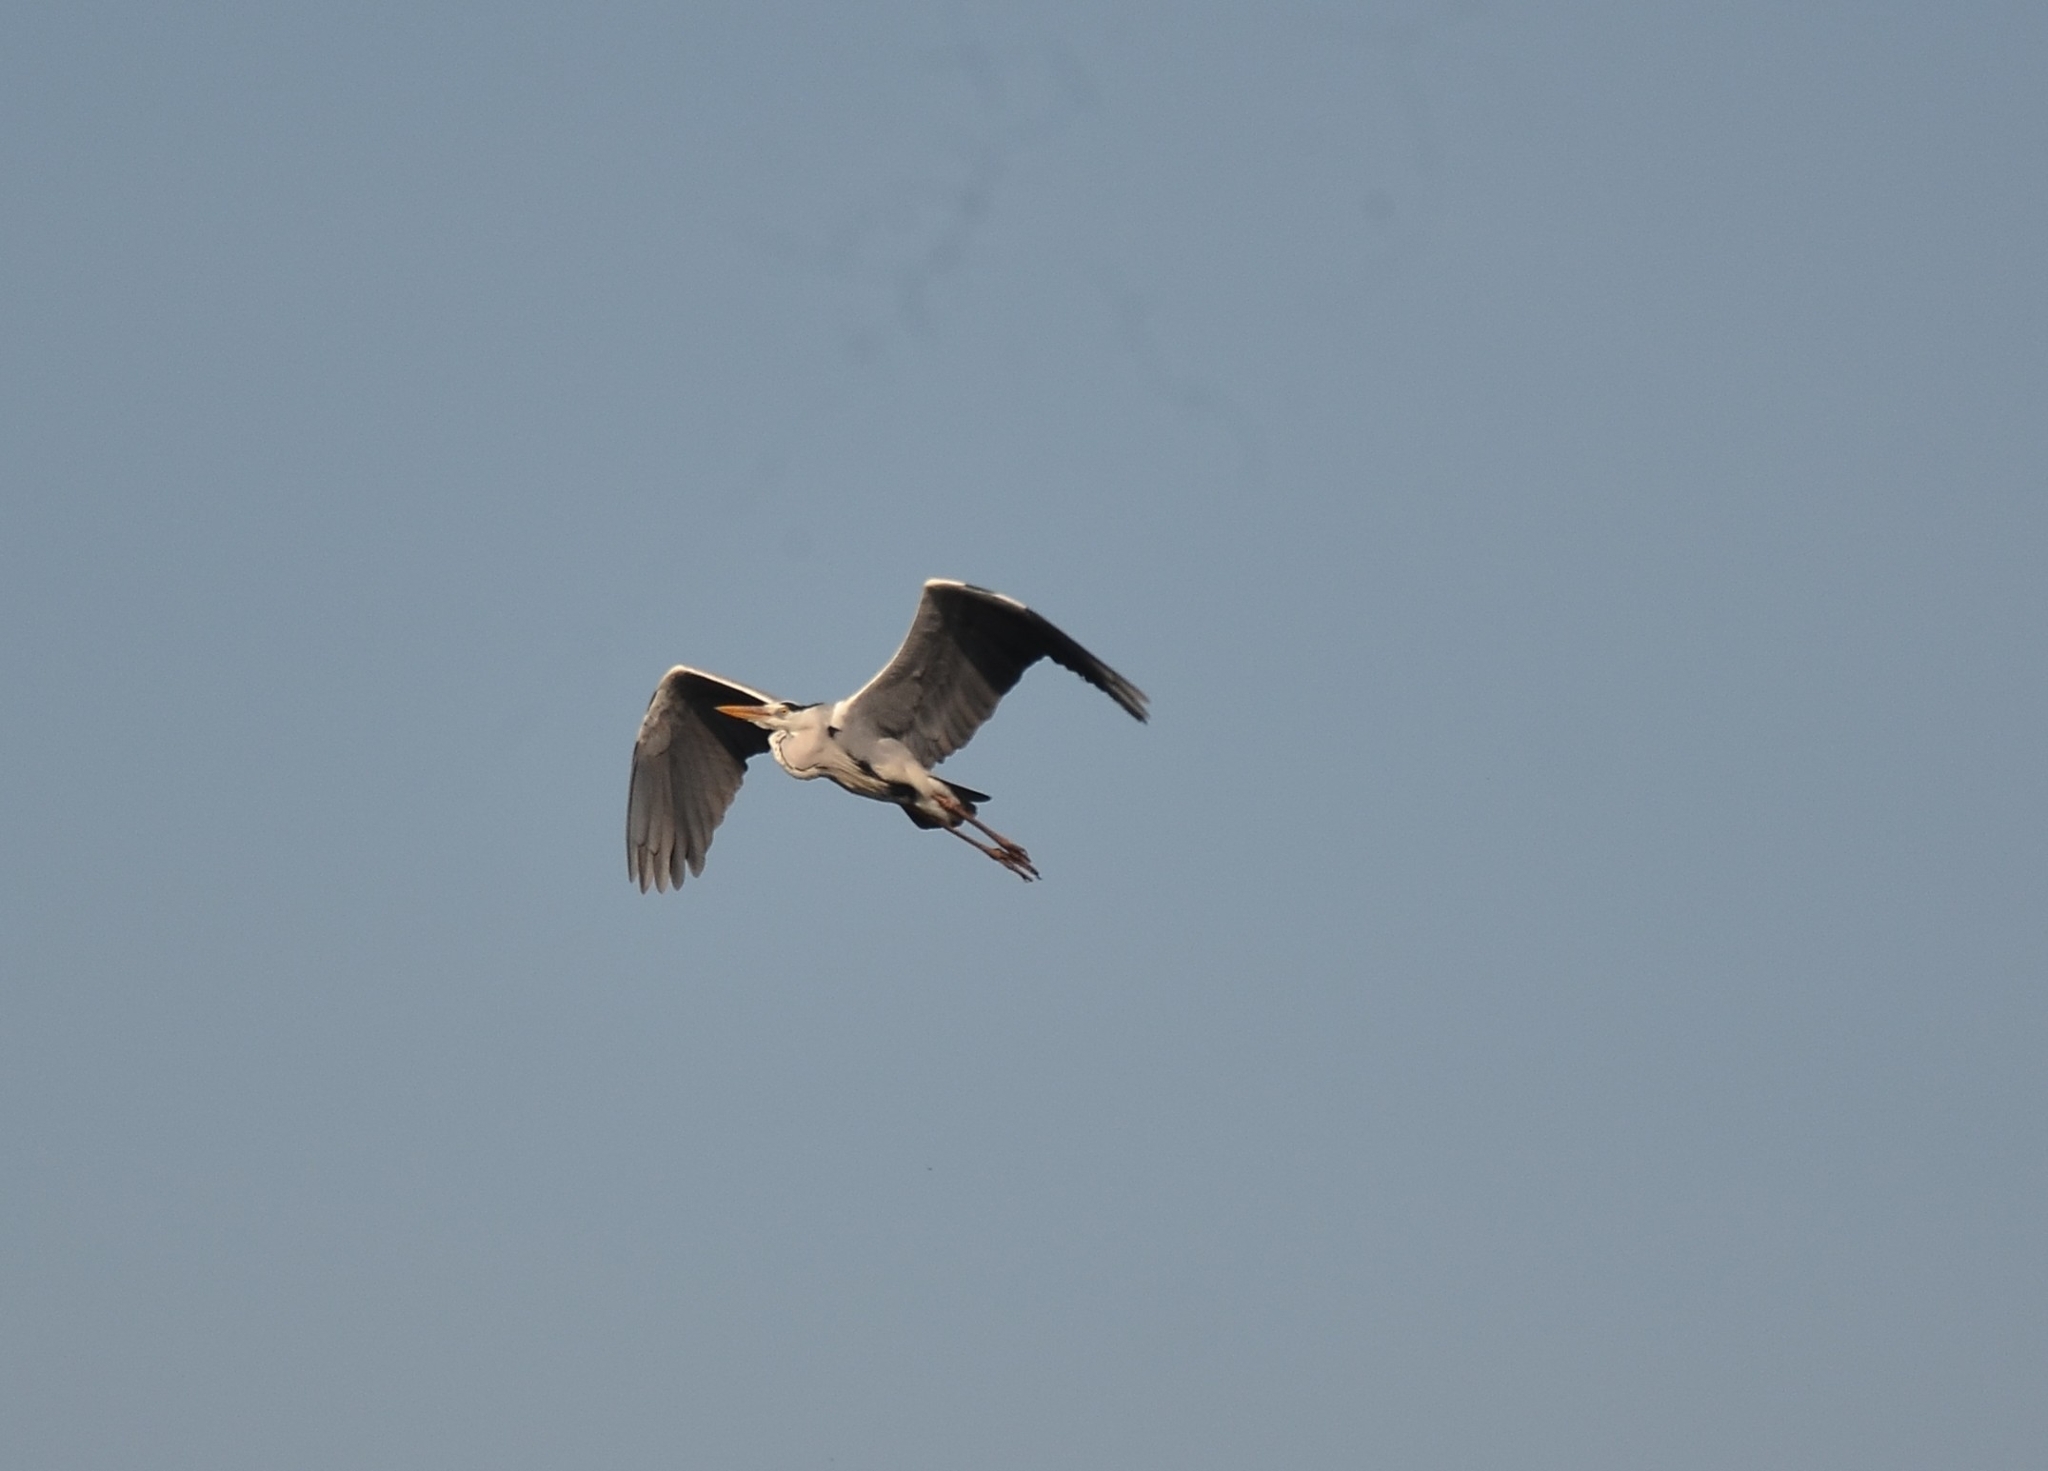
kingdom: Animalia
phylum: Chordata
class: Aves
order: Pelecaniformes
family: Ardeidae
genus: Ardea
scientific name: Ardea cinerea
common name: Grey heron
